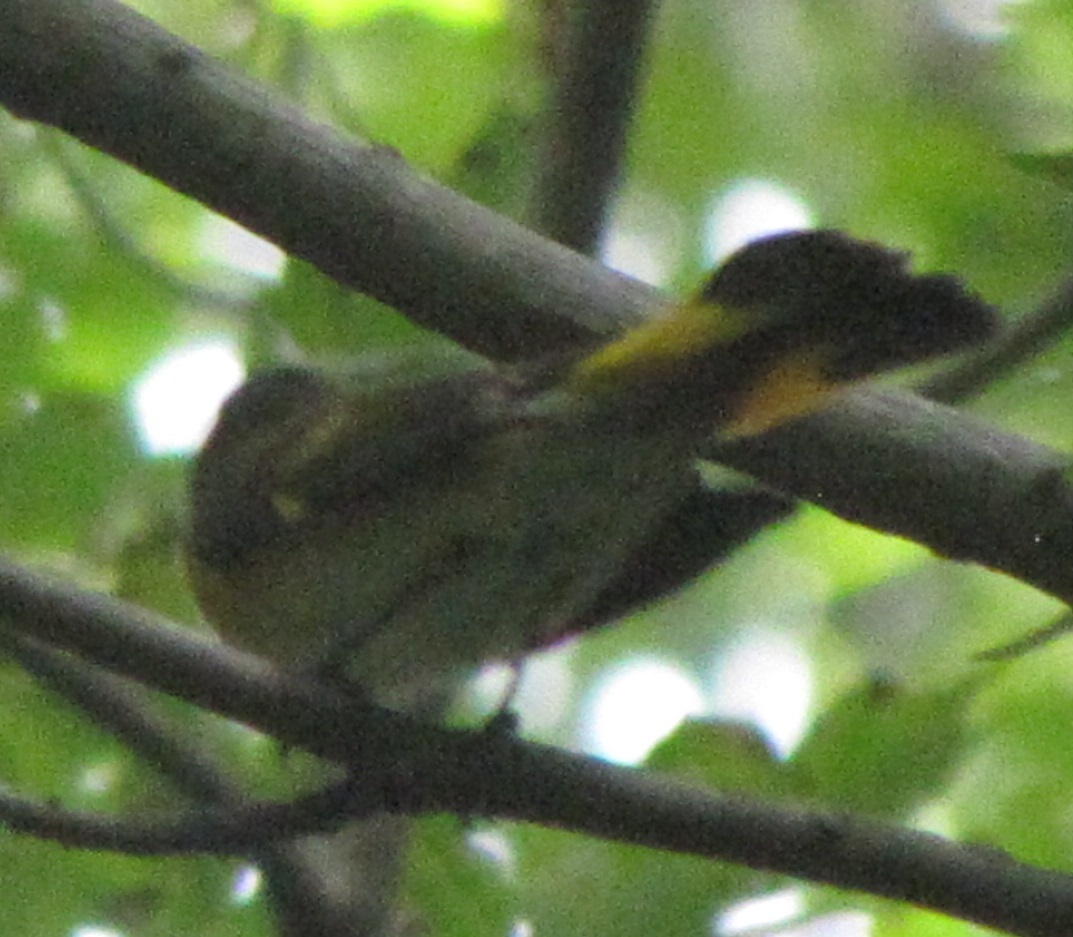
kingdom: Animalia
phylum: Chordata
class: Aves
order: Passeriformes
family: Parulidae
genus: Setophaga
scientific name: Setophaga ruticilla
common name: American redstart
